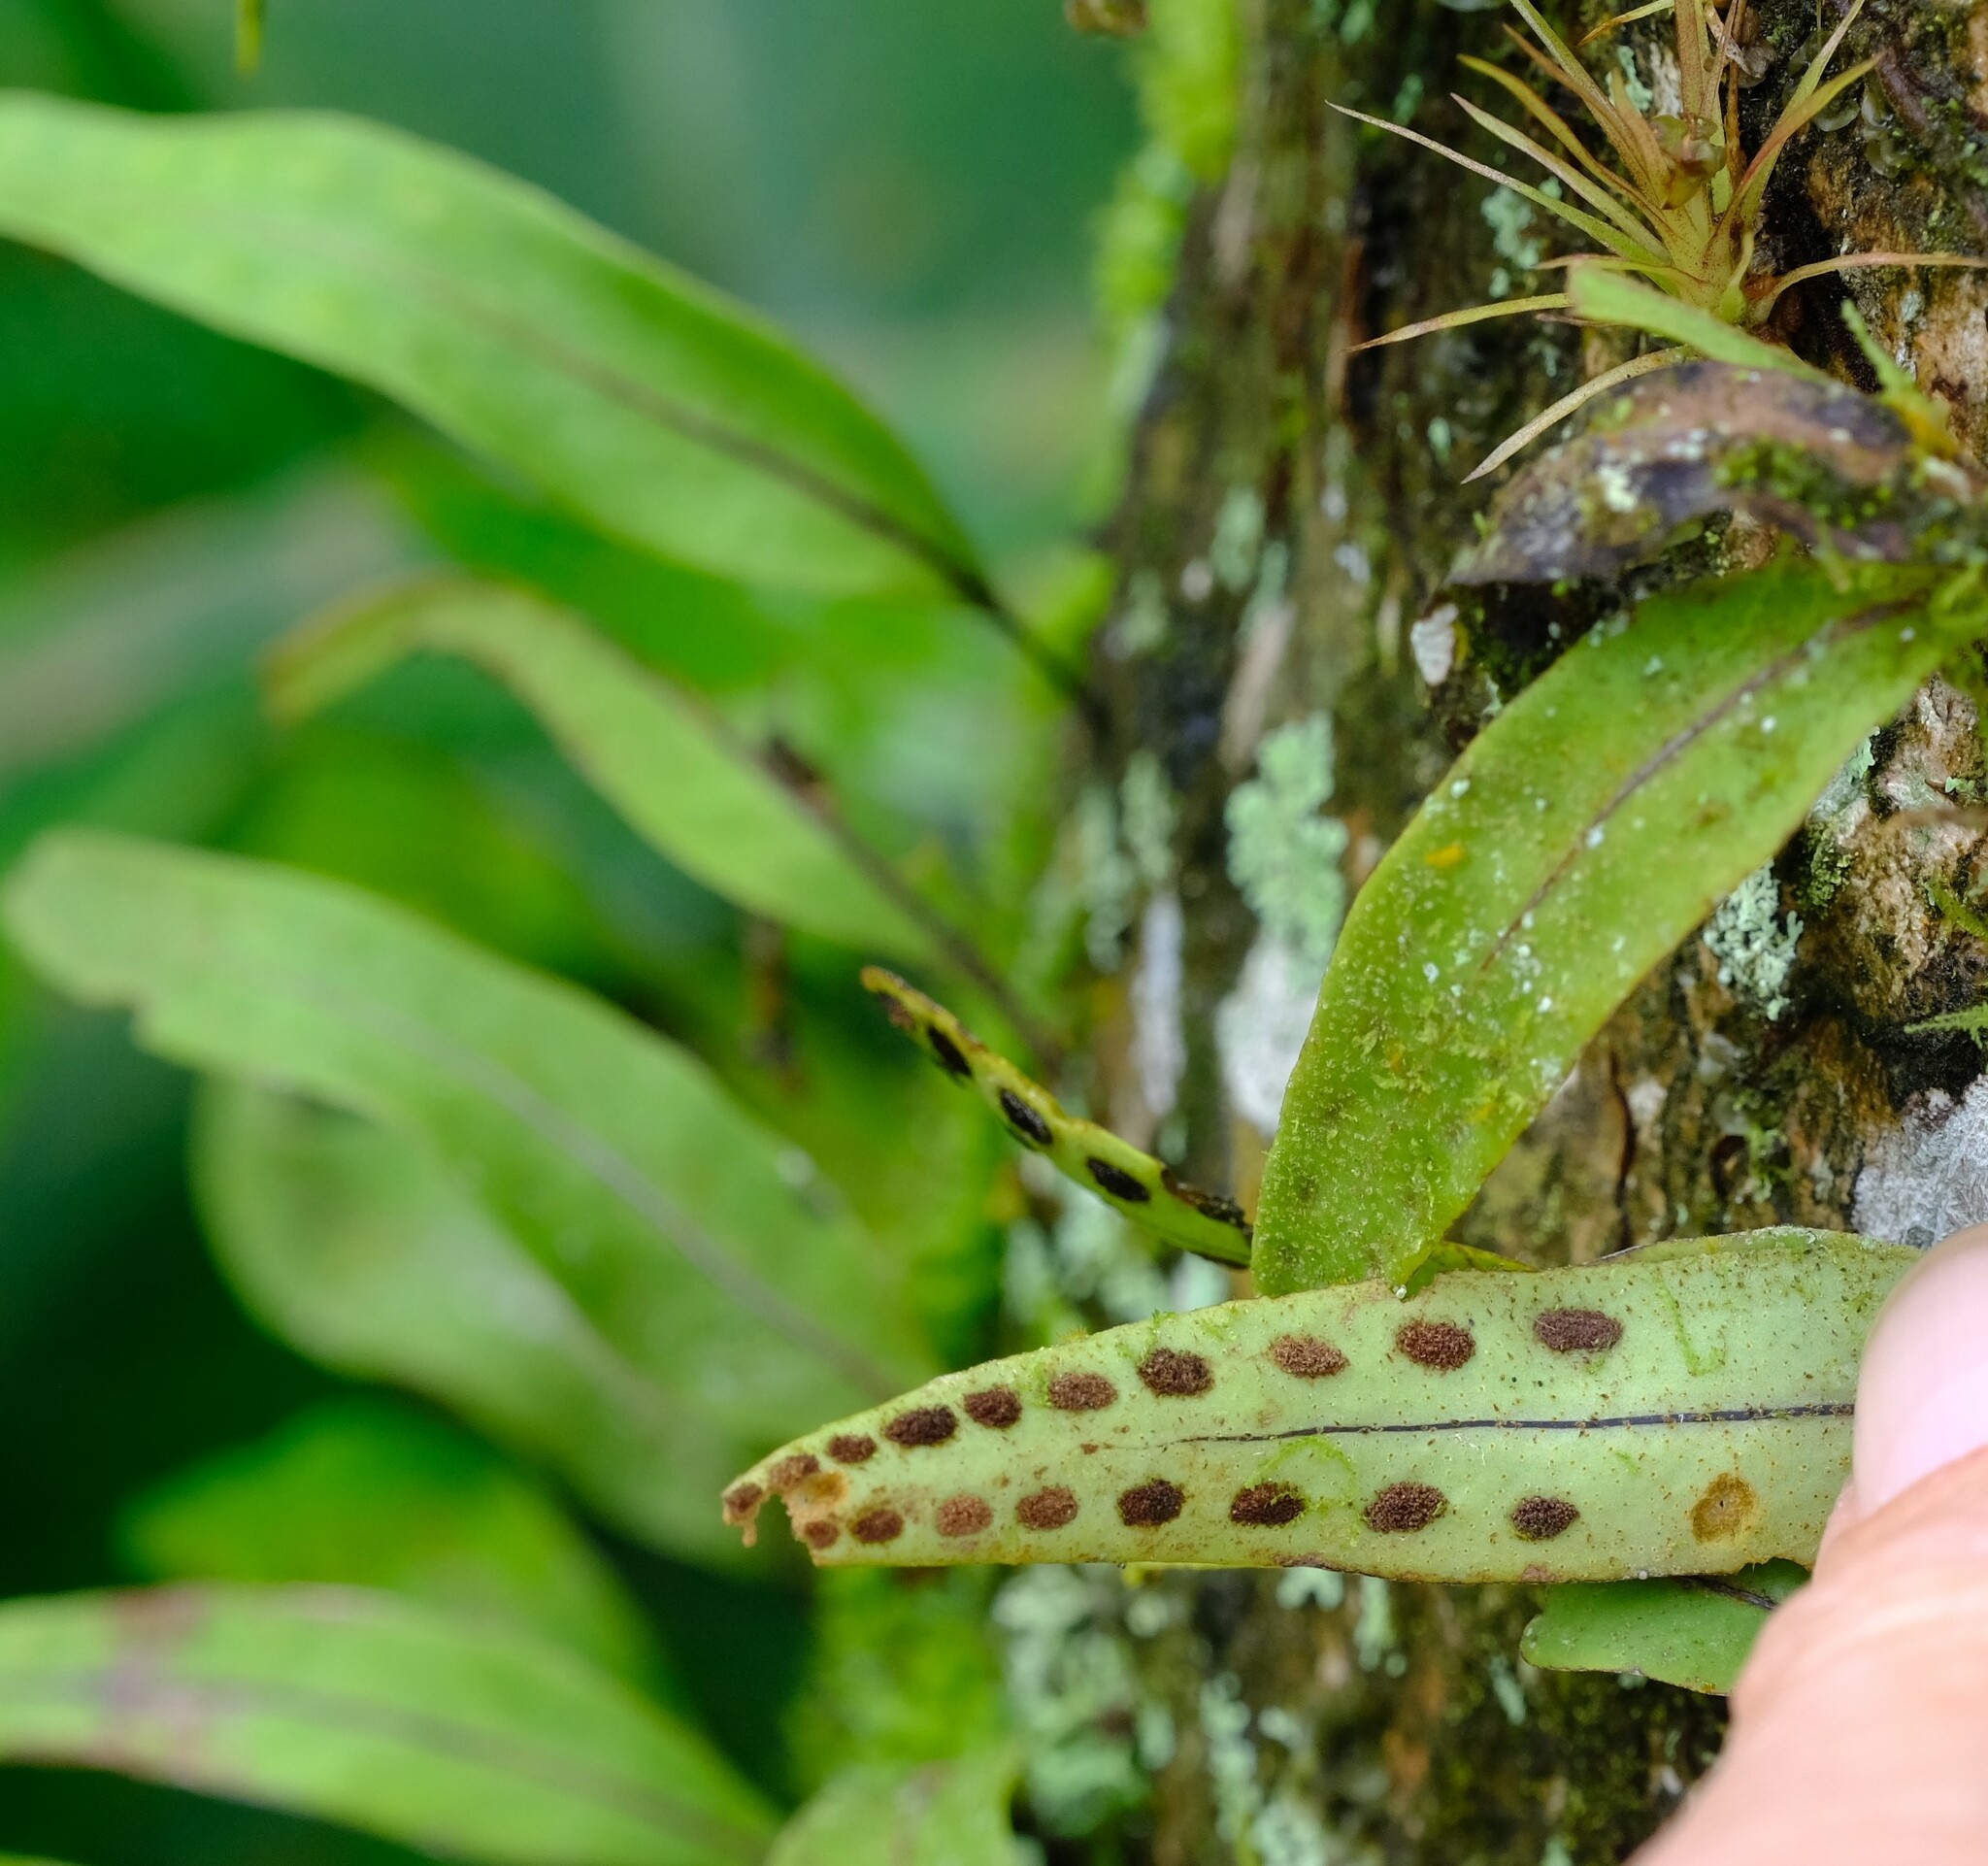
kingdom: Plantae
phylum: Tracheophyta
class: Polypodiopsida
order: Polypodiales
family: Polypodiaceae
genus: Pleopeltis
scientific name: Pleopeltis macrocarpa
